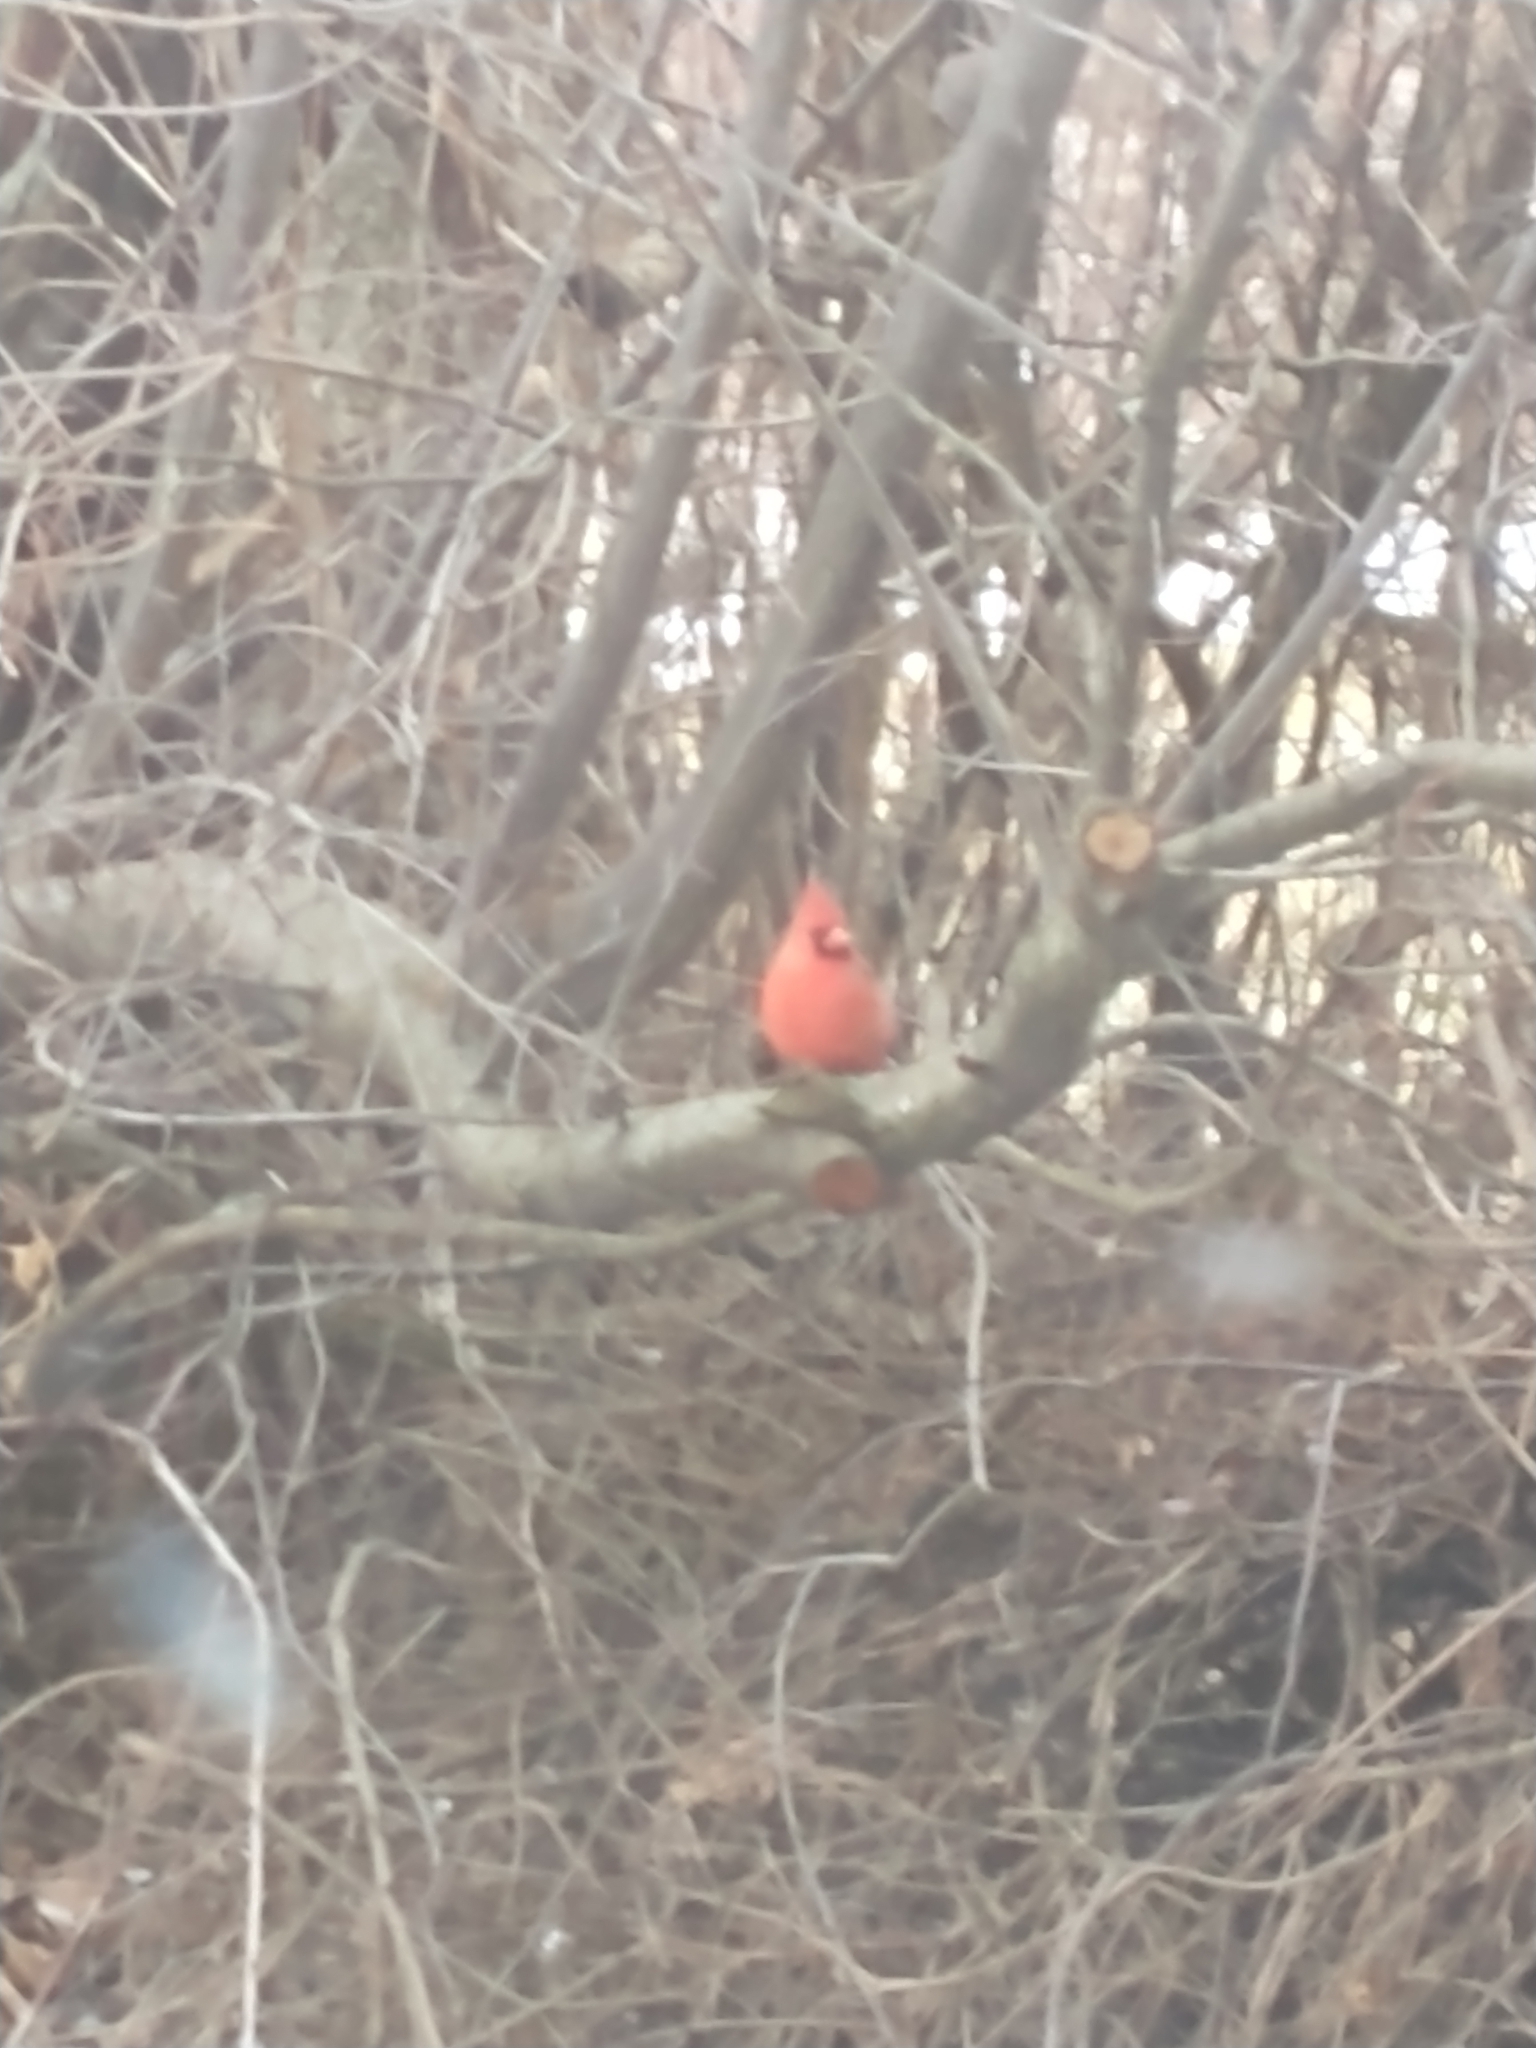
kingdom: Animalia
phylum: Chordata
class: Aves
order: Passeriformes
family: Cardinalidae
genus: Cardinalis
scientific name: Cardinalis cardinalis
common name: Northern cardinal
